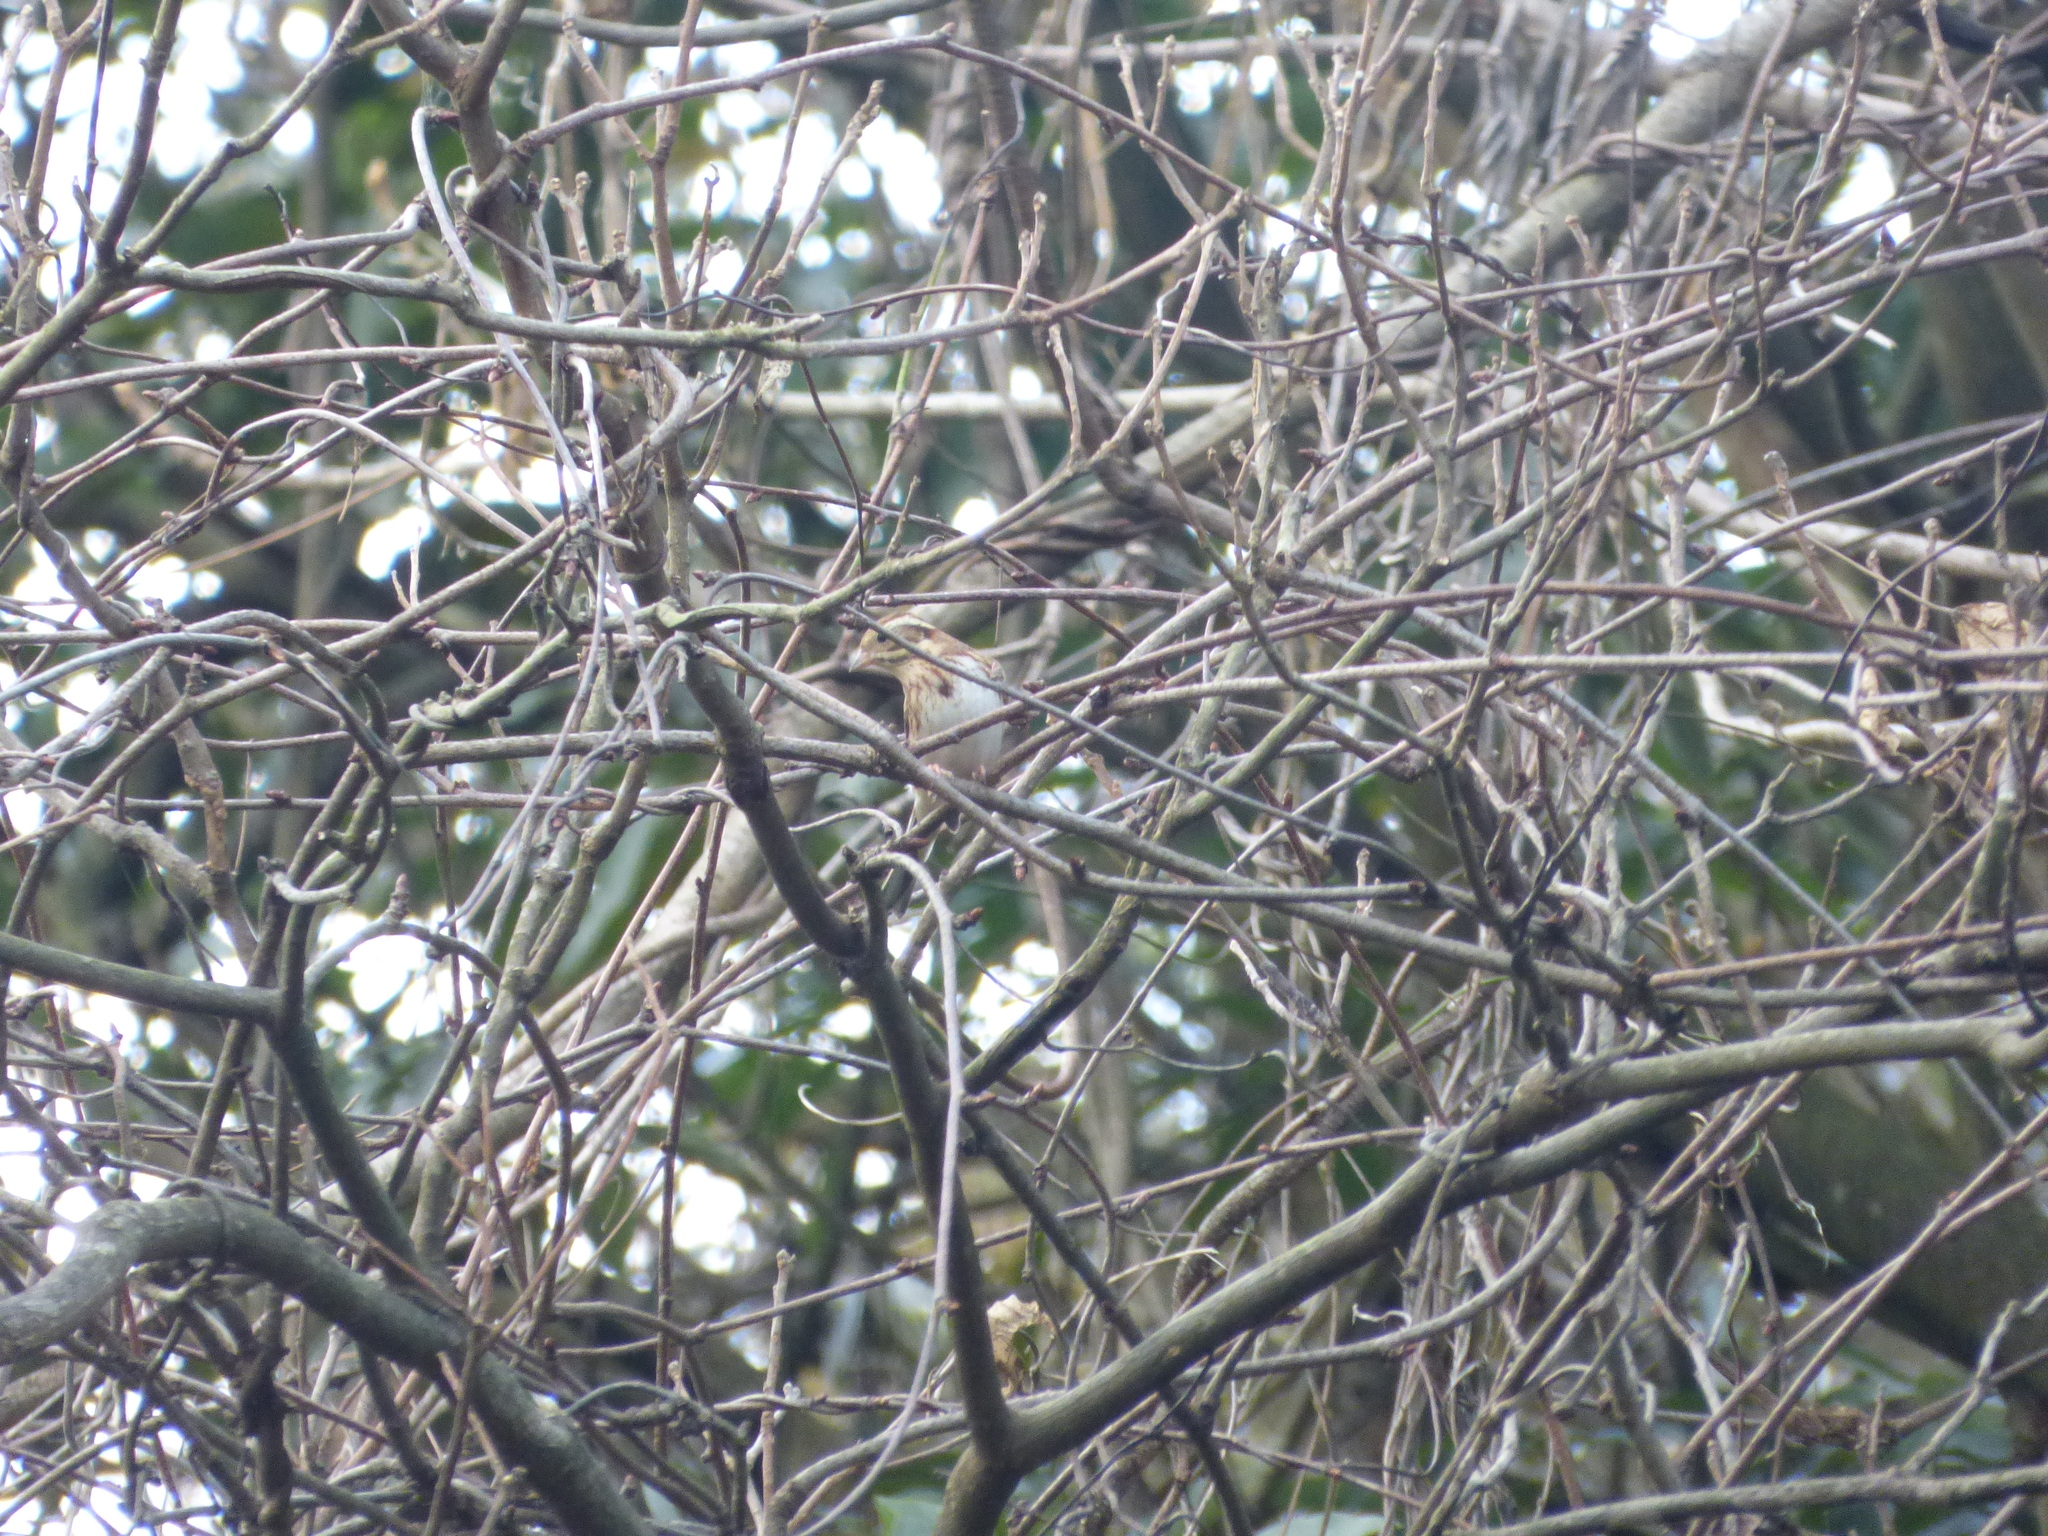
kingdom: Animalia
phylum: Chordata
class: Aves
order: Passeriformes
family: Emberizidae
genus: Emberiza
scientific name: Emberiza rustica
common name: Rustic bunting
